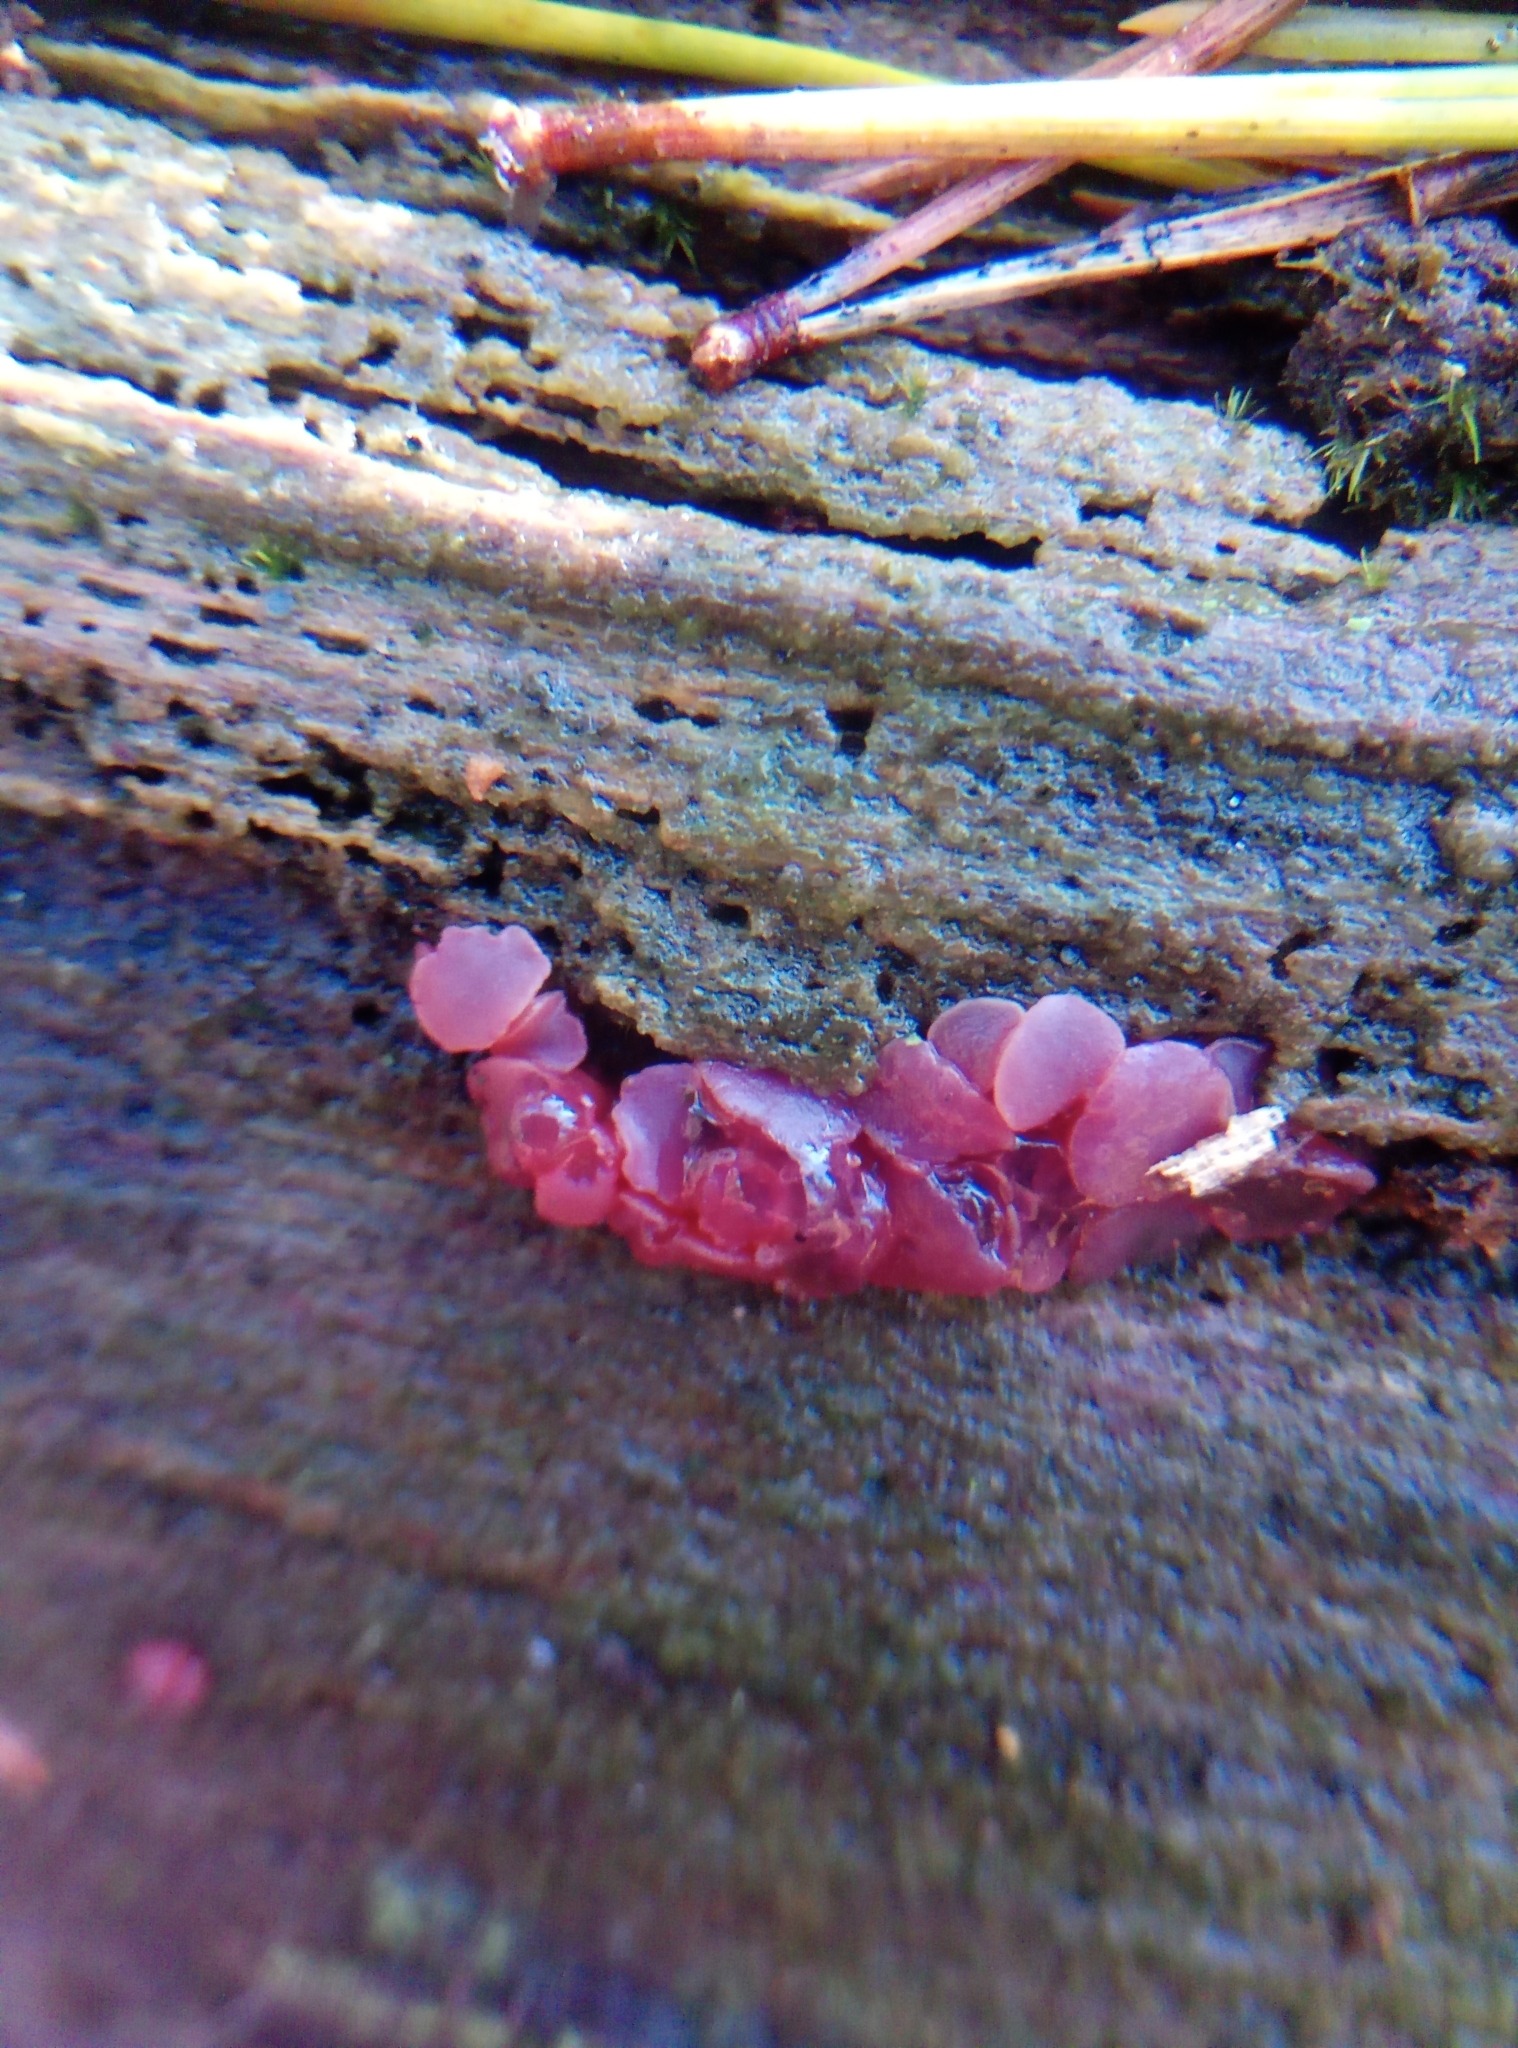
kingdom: Fungi
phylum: Ascomycota
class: Leotiomycetes
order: Helotiales
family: Gelatinodiscaceae
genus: Ascocoryne
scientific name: Ascocoryne sarcoides
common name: Purple jellydisc
